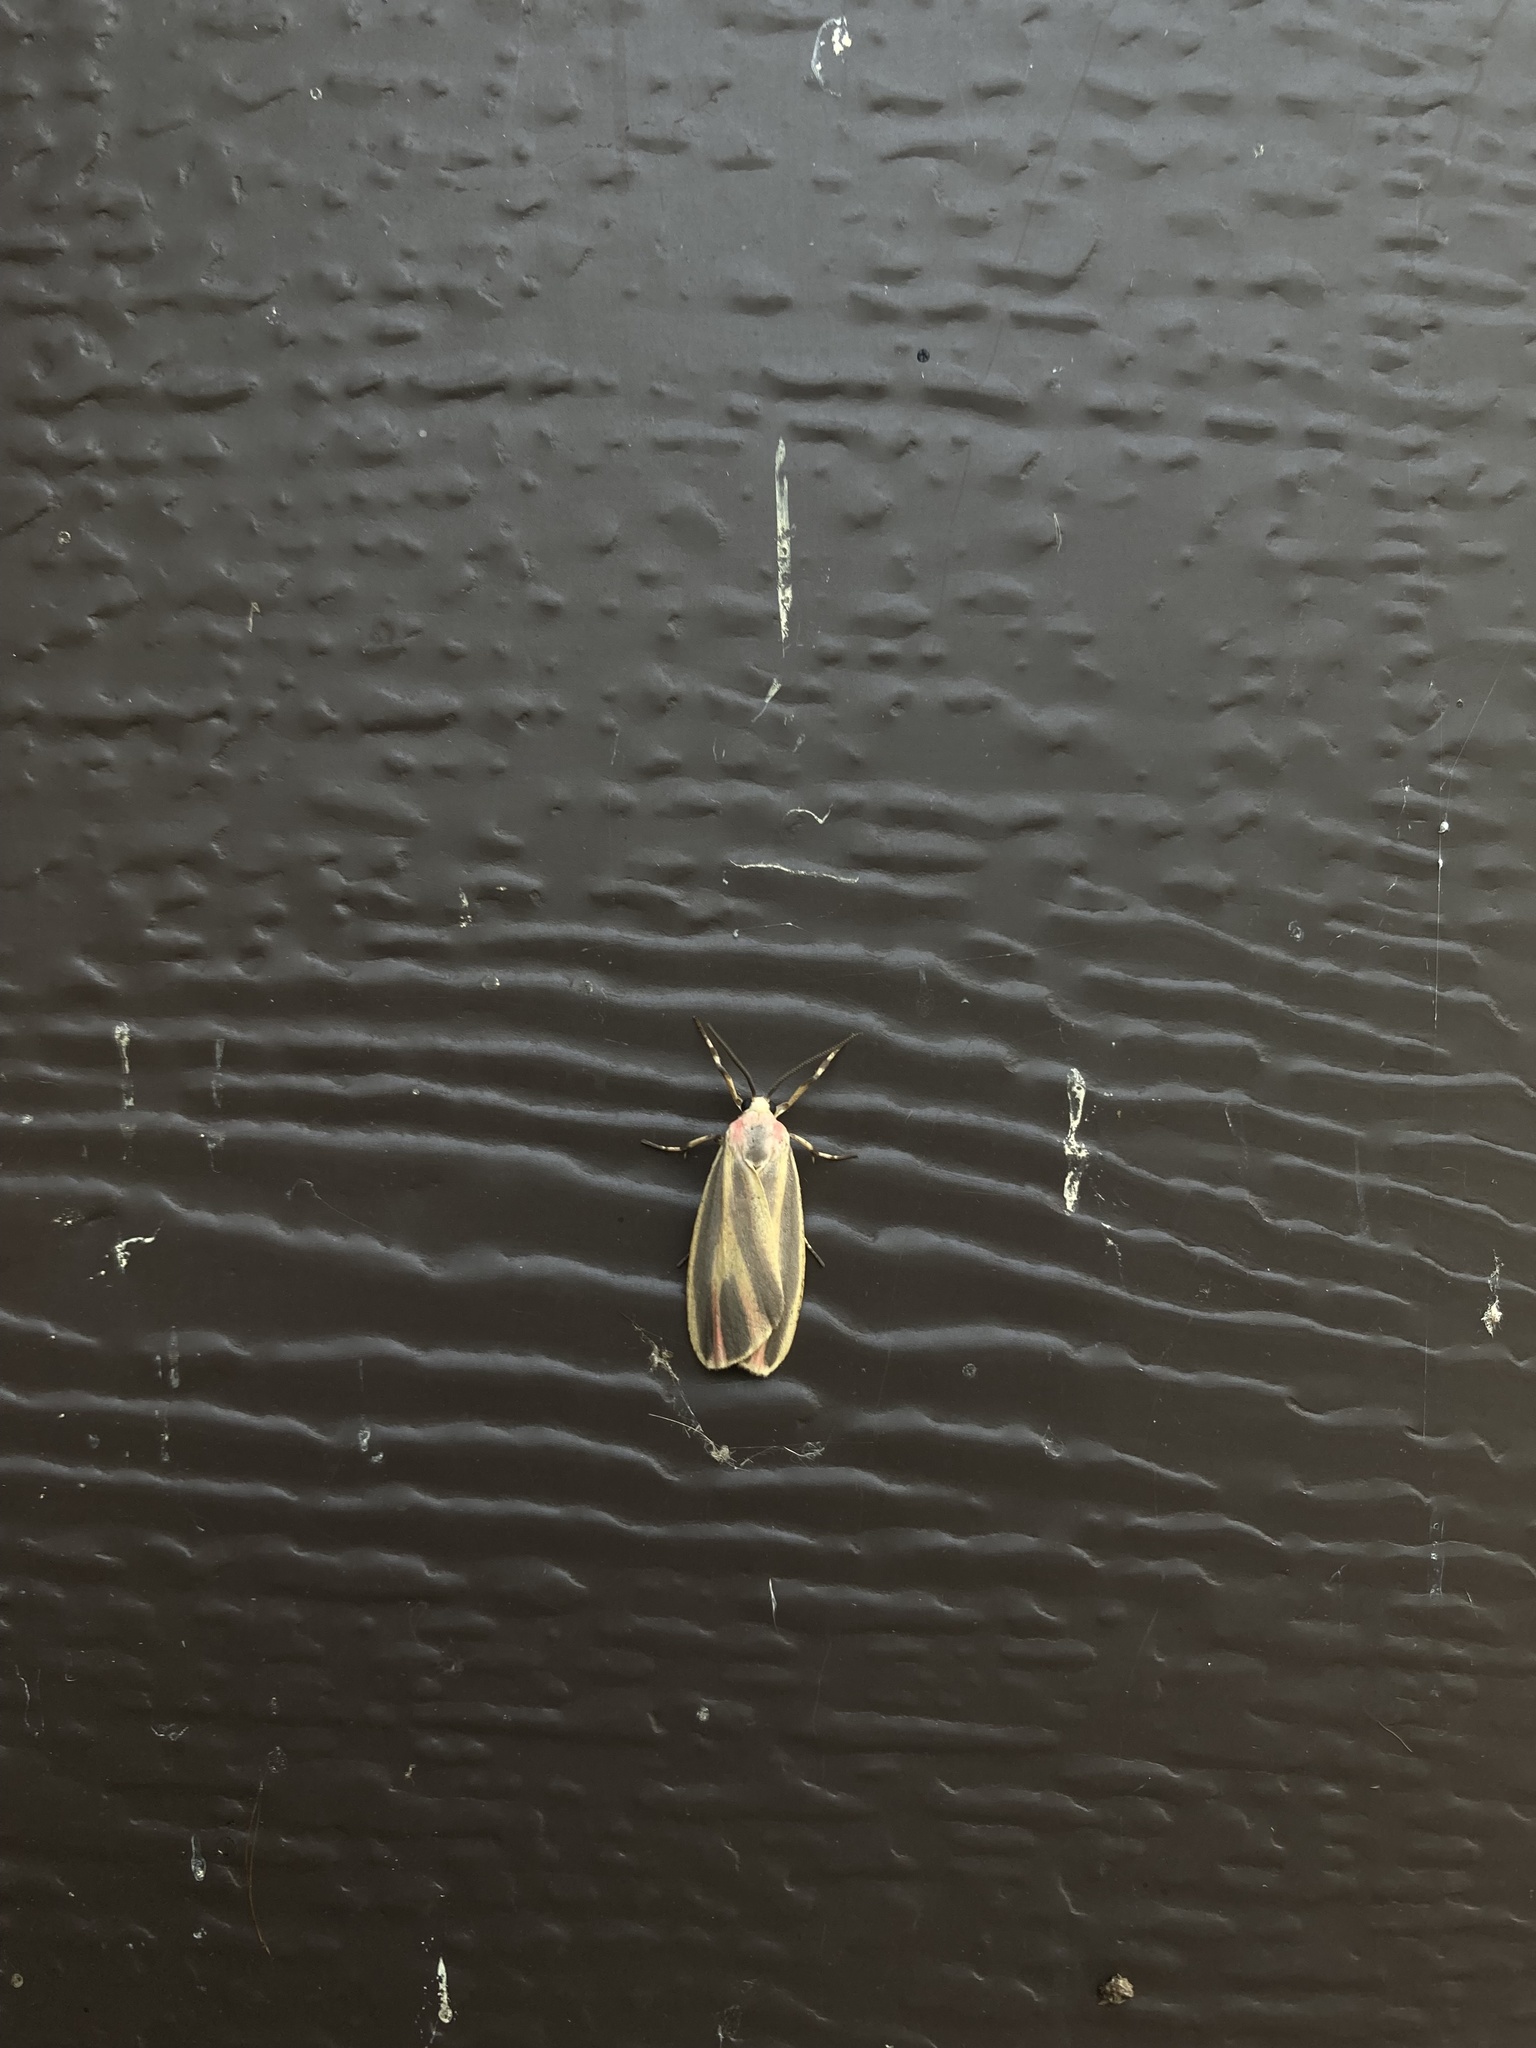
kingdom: Animalia
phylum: Arthropoda
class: Insecta
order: Lepidoptera
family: Erebidae
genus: Hypoprepia
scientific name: Hypoprepia fucosa
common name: Painted lichen moth
